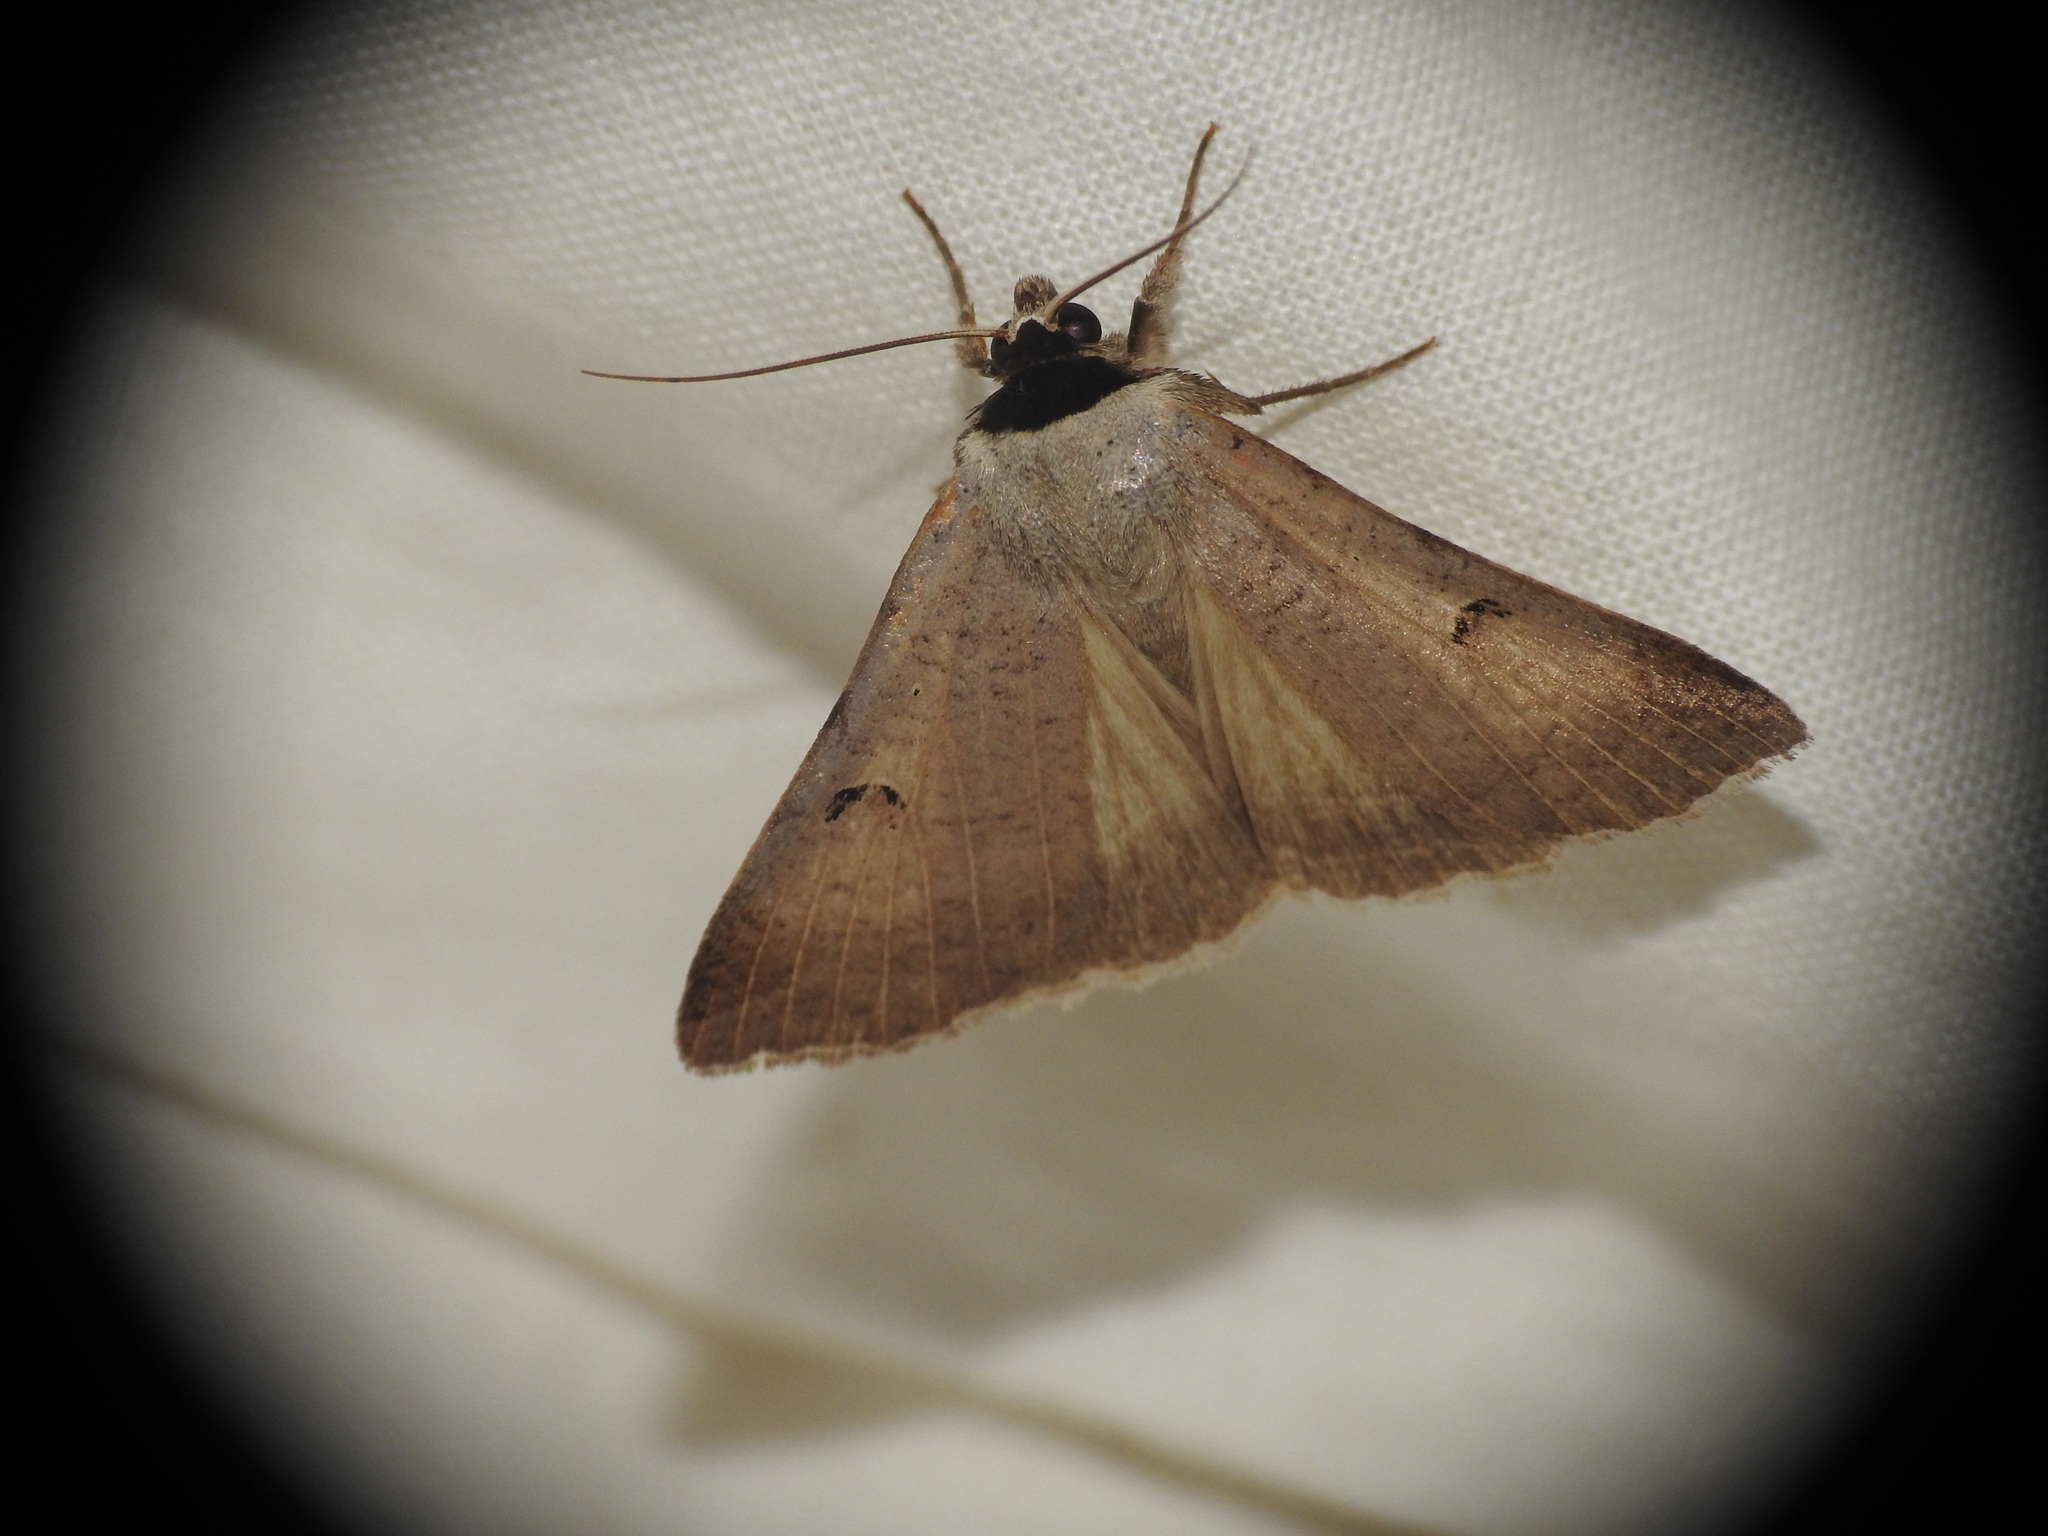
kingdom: Animalia
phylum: Arthropoda
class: Insecta
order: Lepidoptera
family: Erebidae
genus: Lygephila
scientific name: Lygephila craccae
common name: Scarce blackneck
